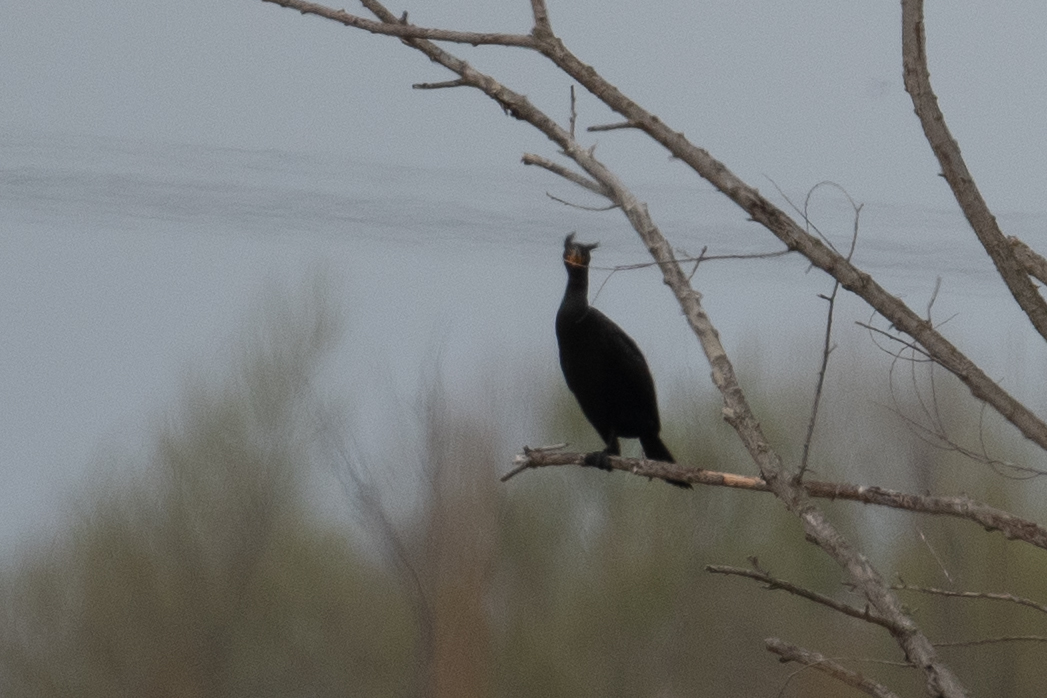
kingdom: Animalia
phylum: Chordata
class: Aves
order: Suliformes
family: Phalacrocoracidae
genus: Phalacrocorax
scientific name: Phalacrocorax auritus
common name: Double-crested cormorant
